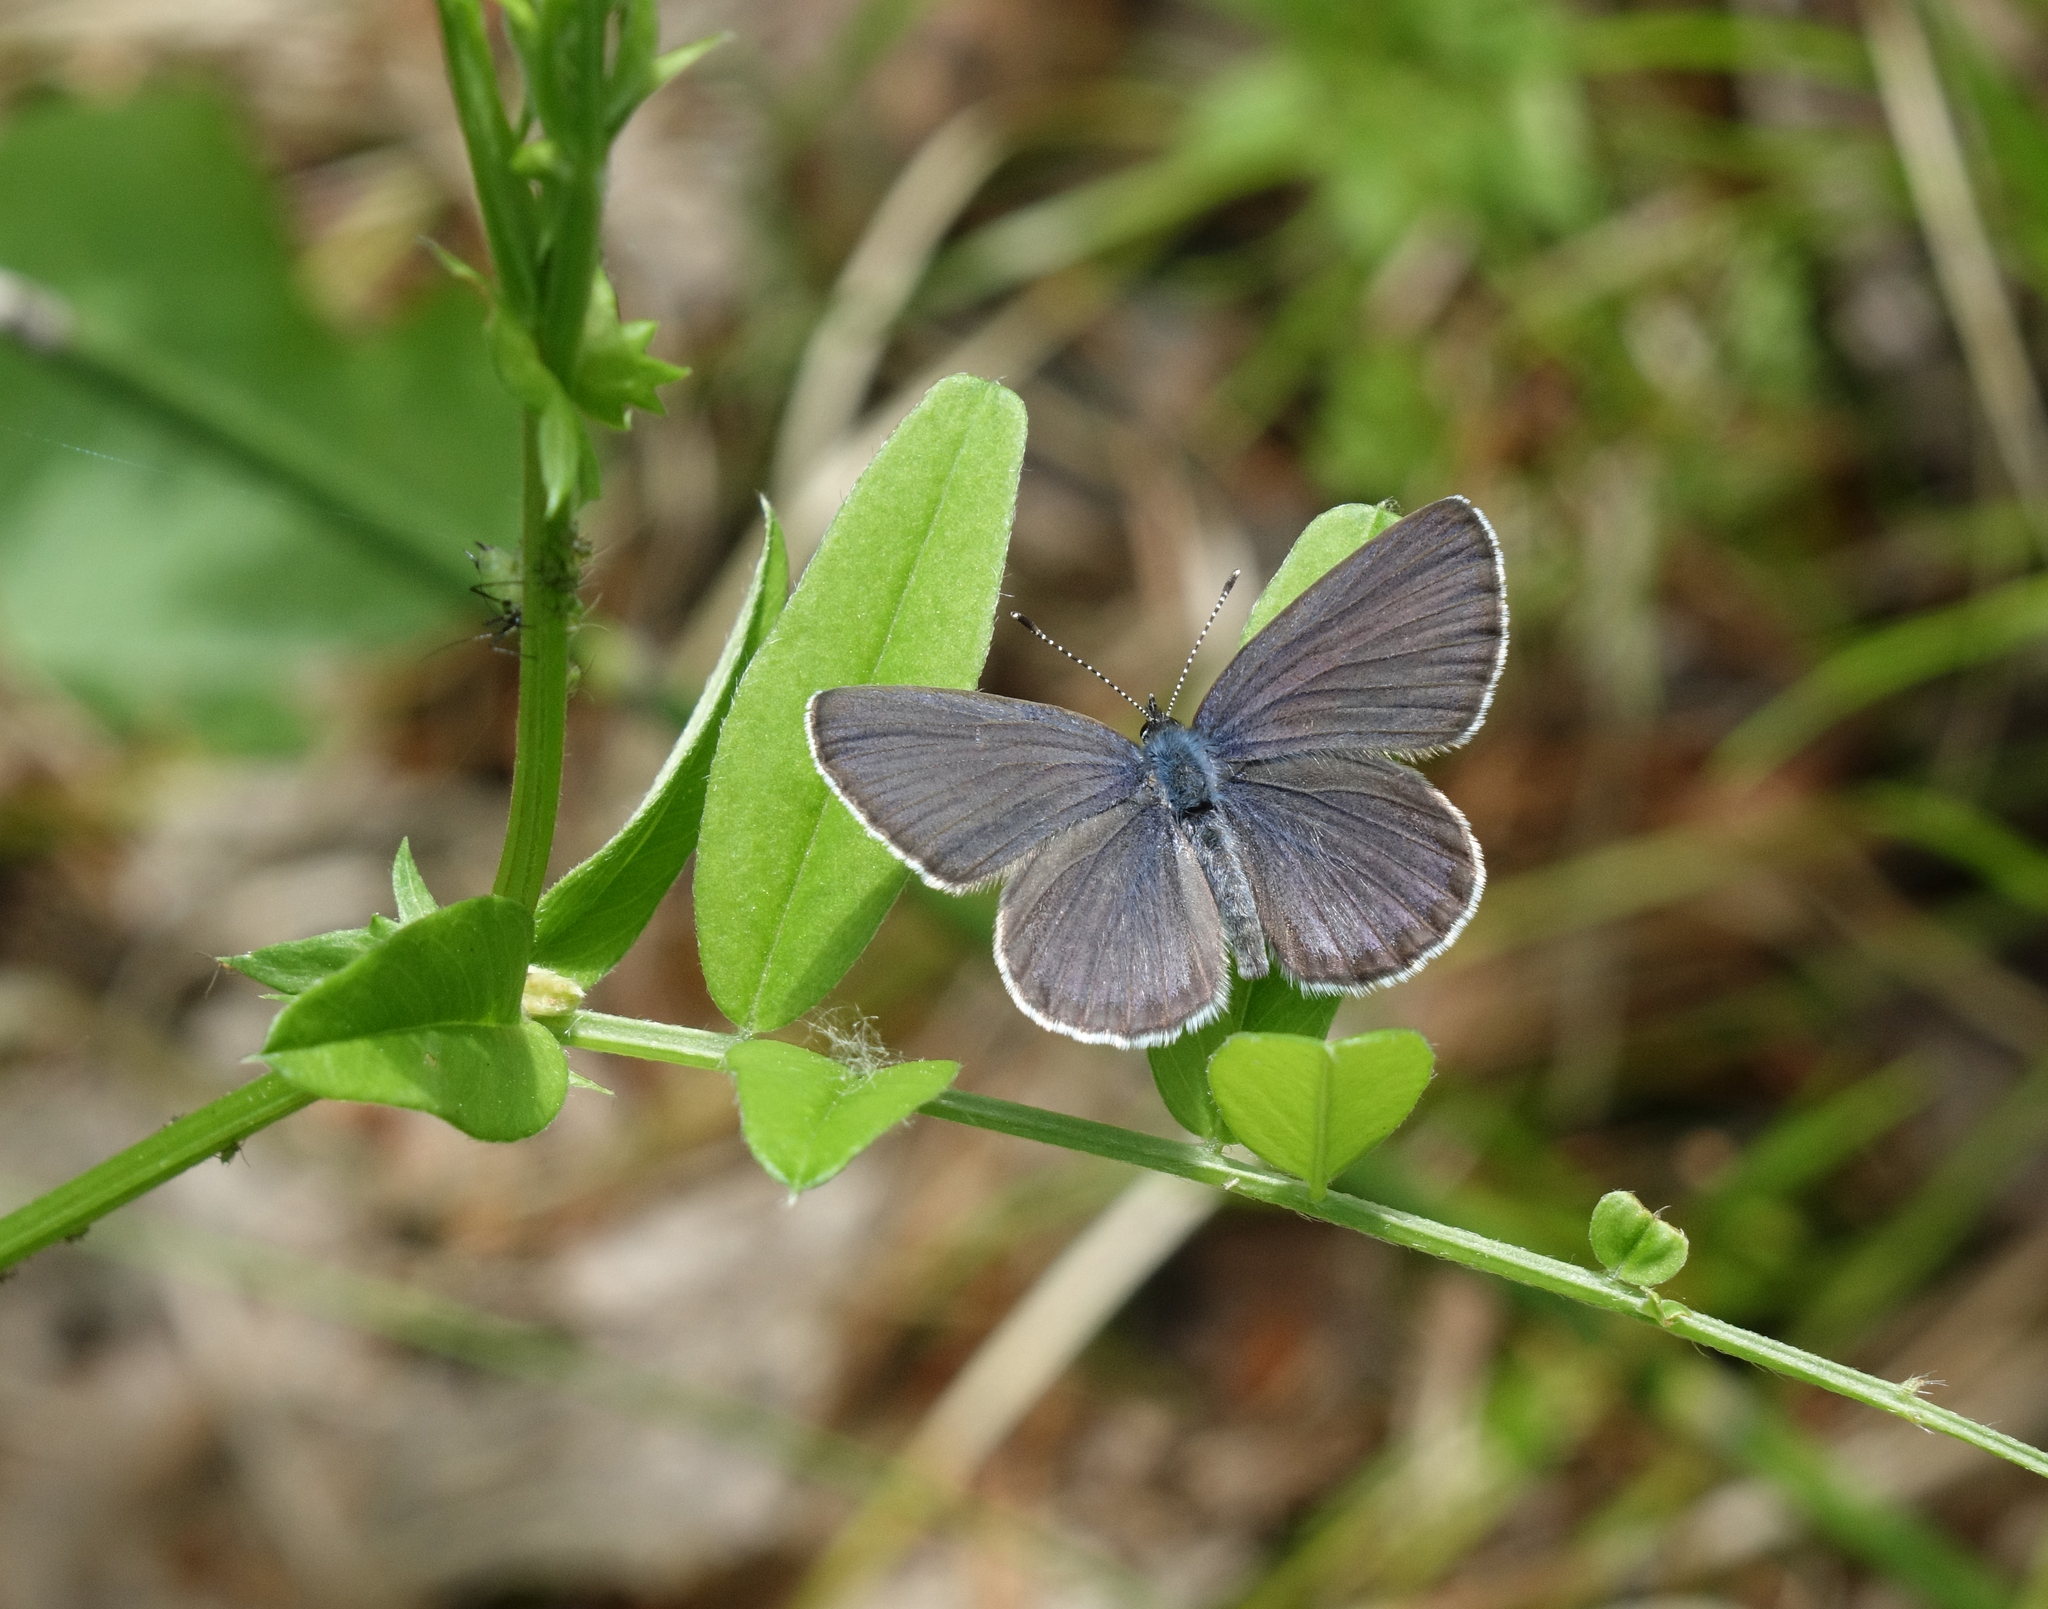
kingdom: Plantae
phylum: Tracheophyta
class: Magnoliopsida
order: Fabales
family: Fabaceae
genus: Vicia
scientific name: Vicia sepium
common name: Bush vetch
